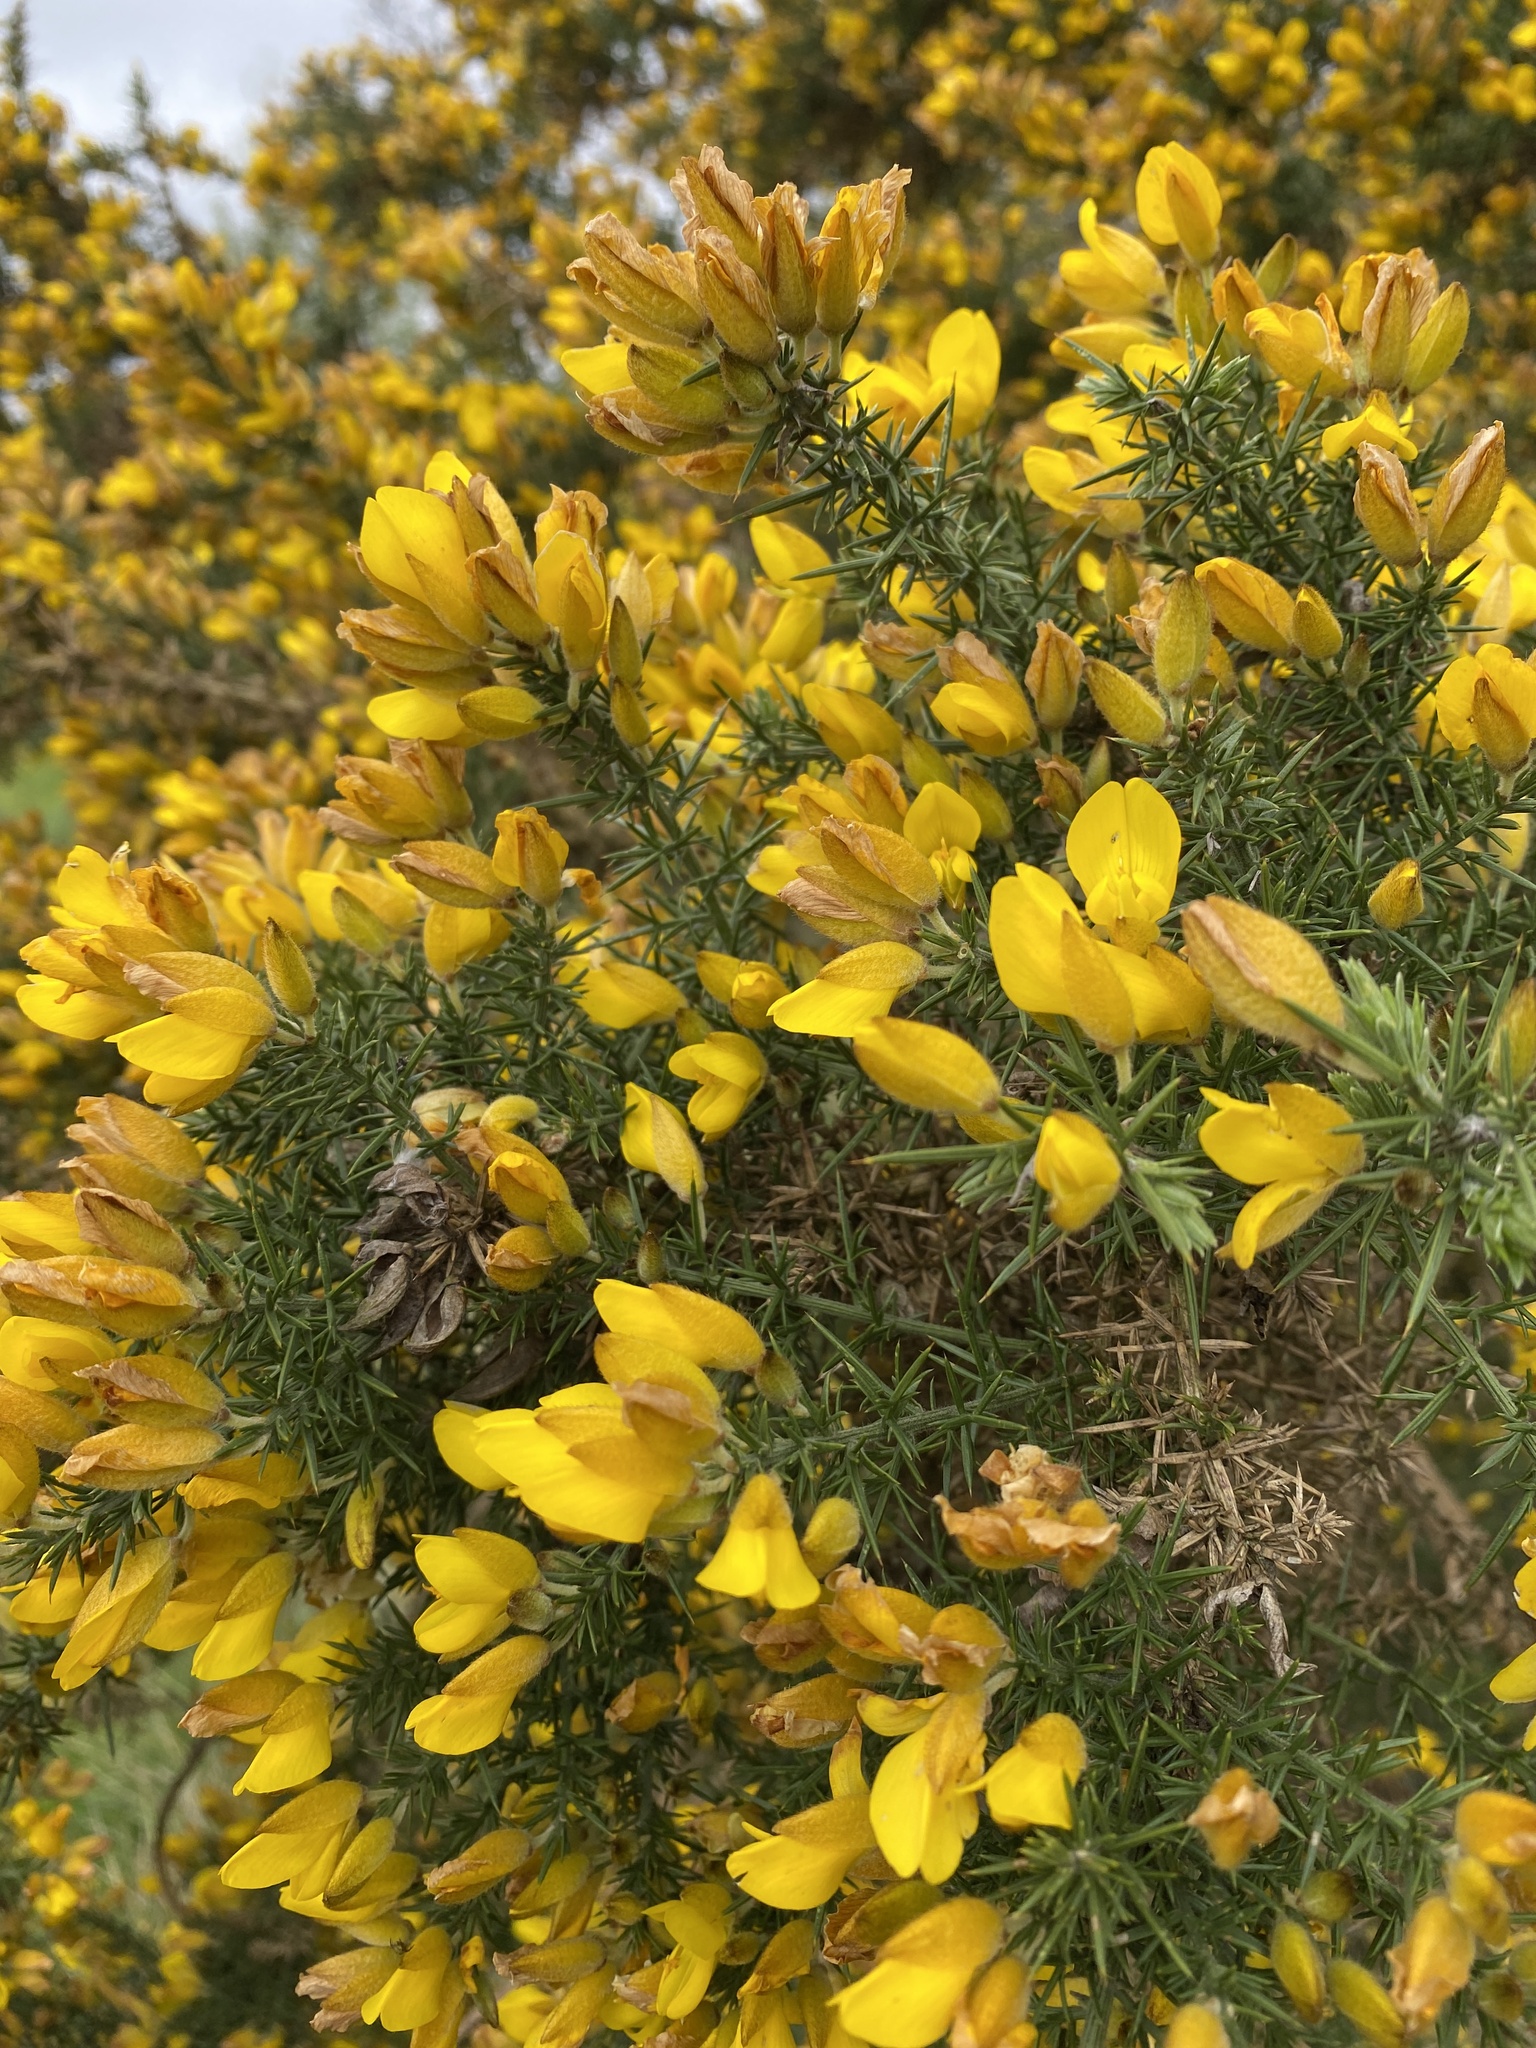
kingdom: Plantae
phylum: Tracheophyta
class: Magnoliopsida
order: Fabales
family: Fabaceae
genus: Ulex
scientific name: Ulex europaeus
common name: Common gorse
